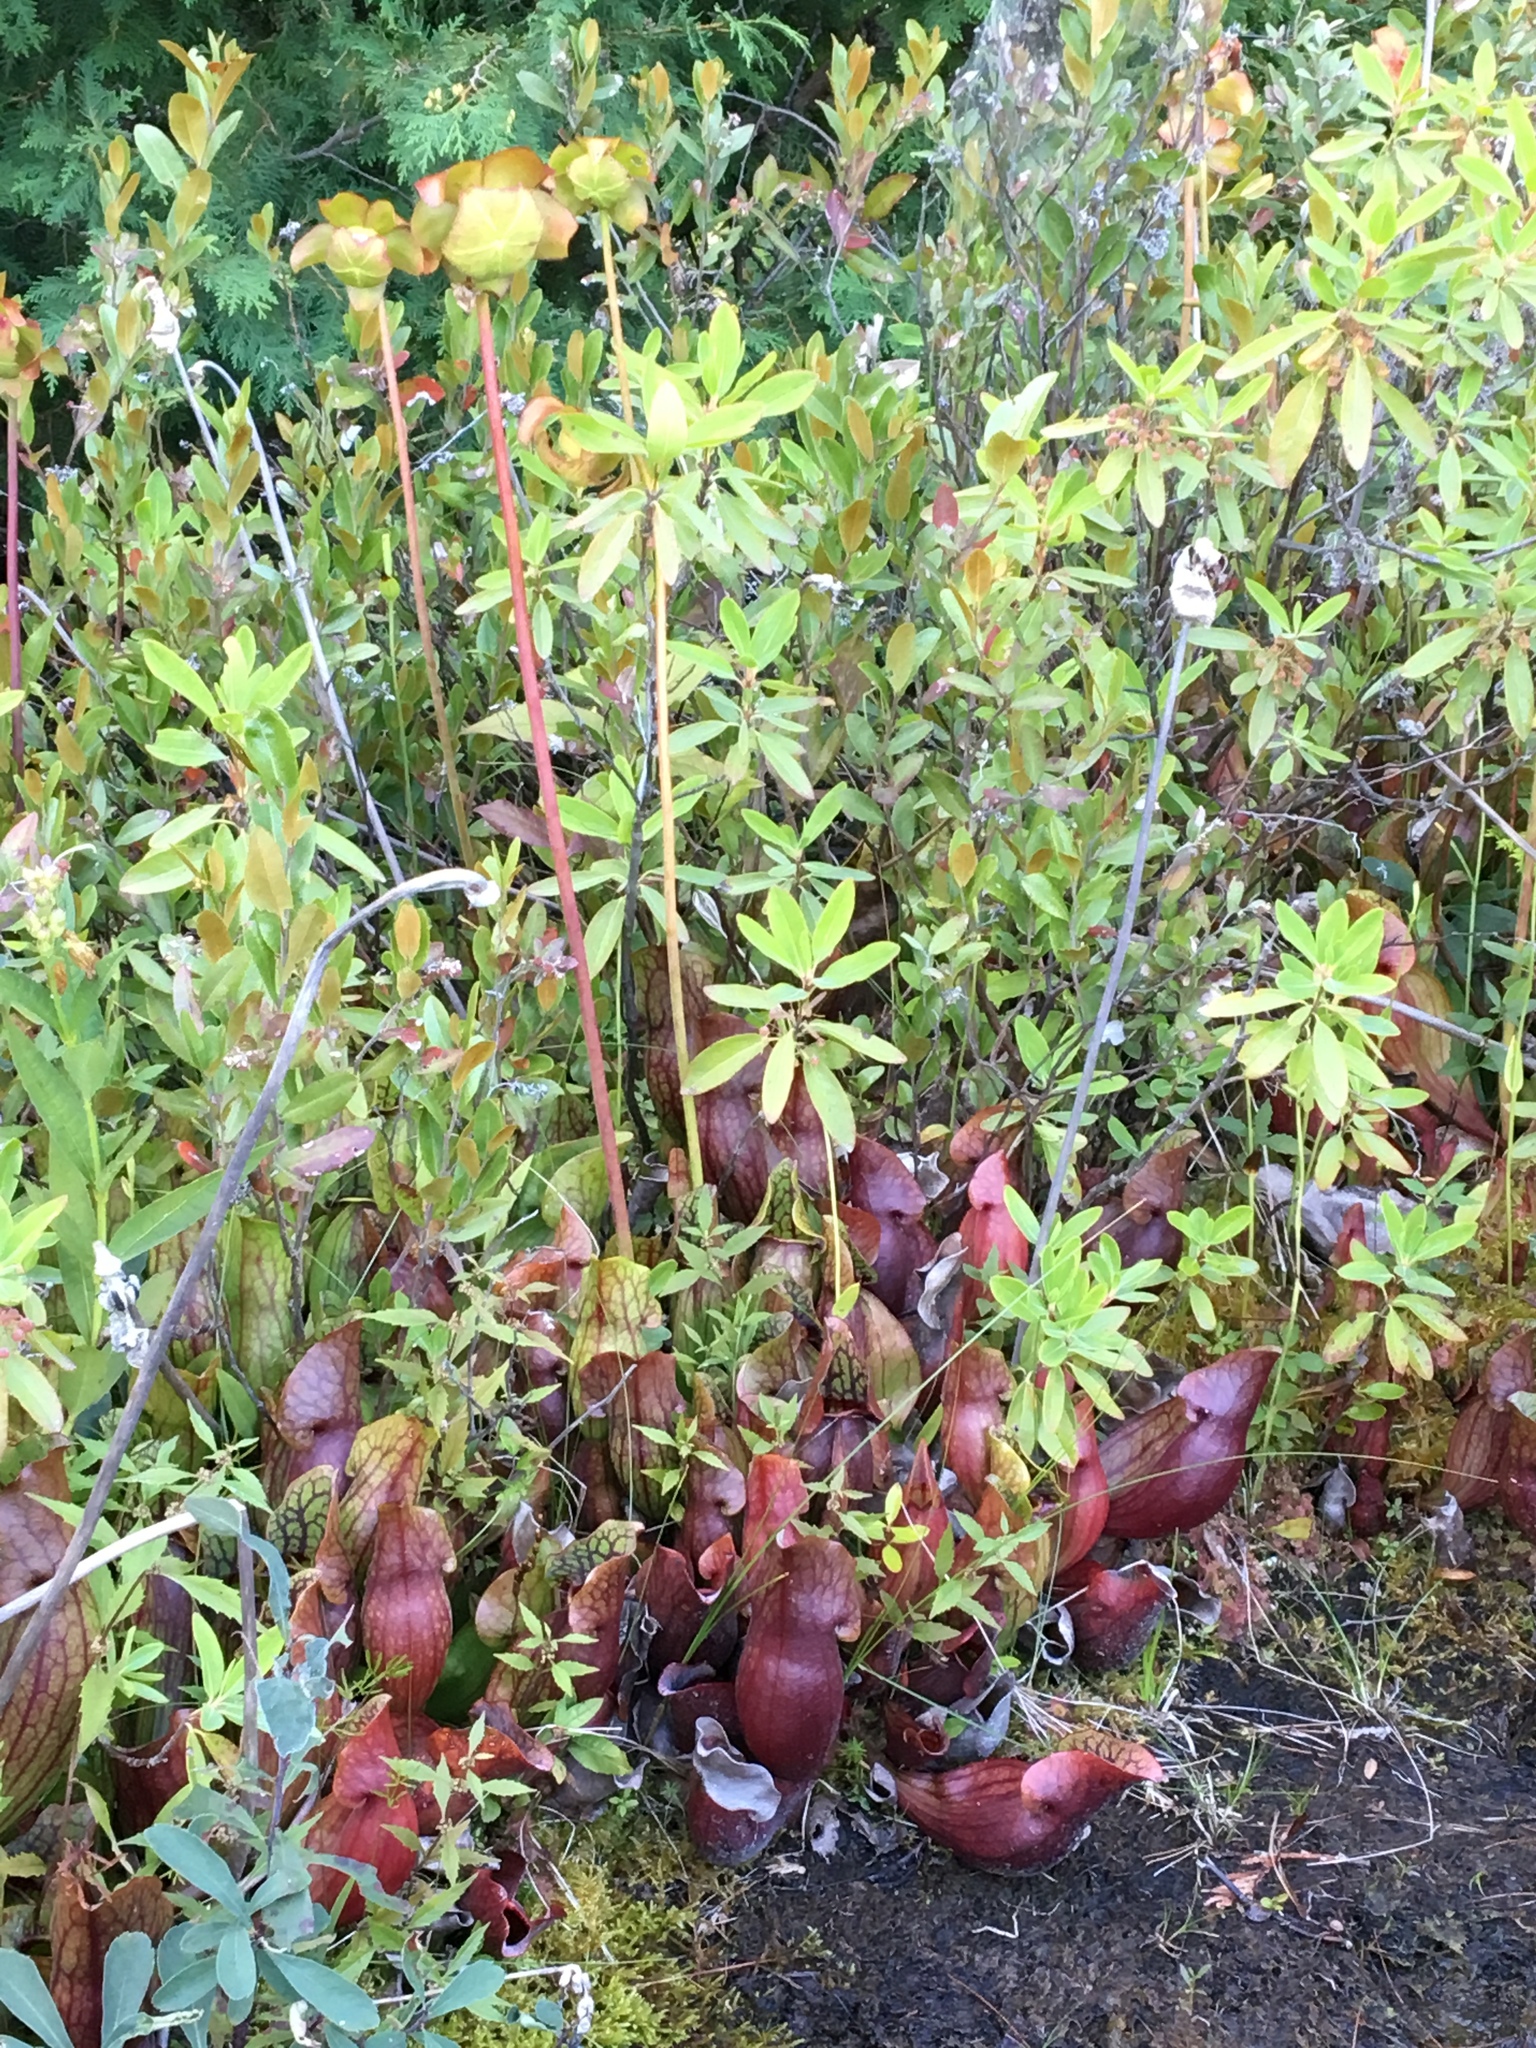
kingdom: Plantae
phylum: Tracheophyta
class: Magnoliopsida
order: Ericales
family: Sarraceniaceae
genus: Sarracenia
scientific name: Sarracenia purpurea
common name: Pitcherplant
